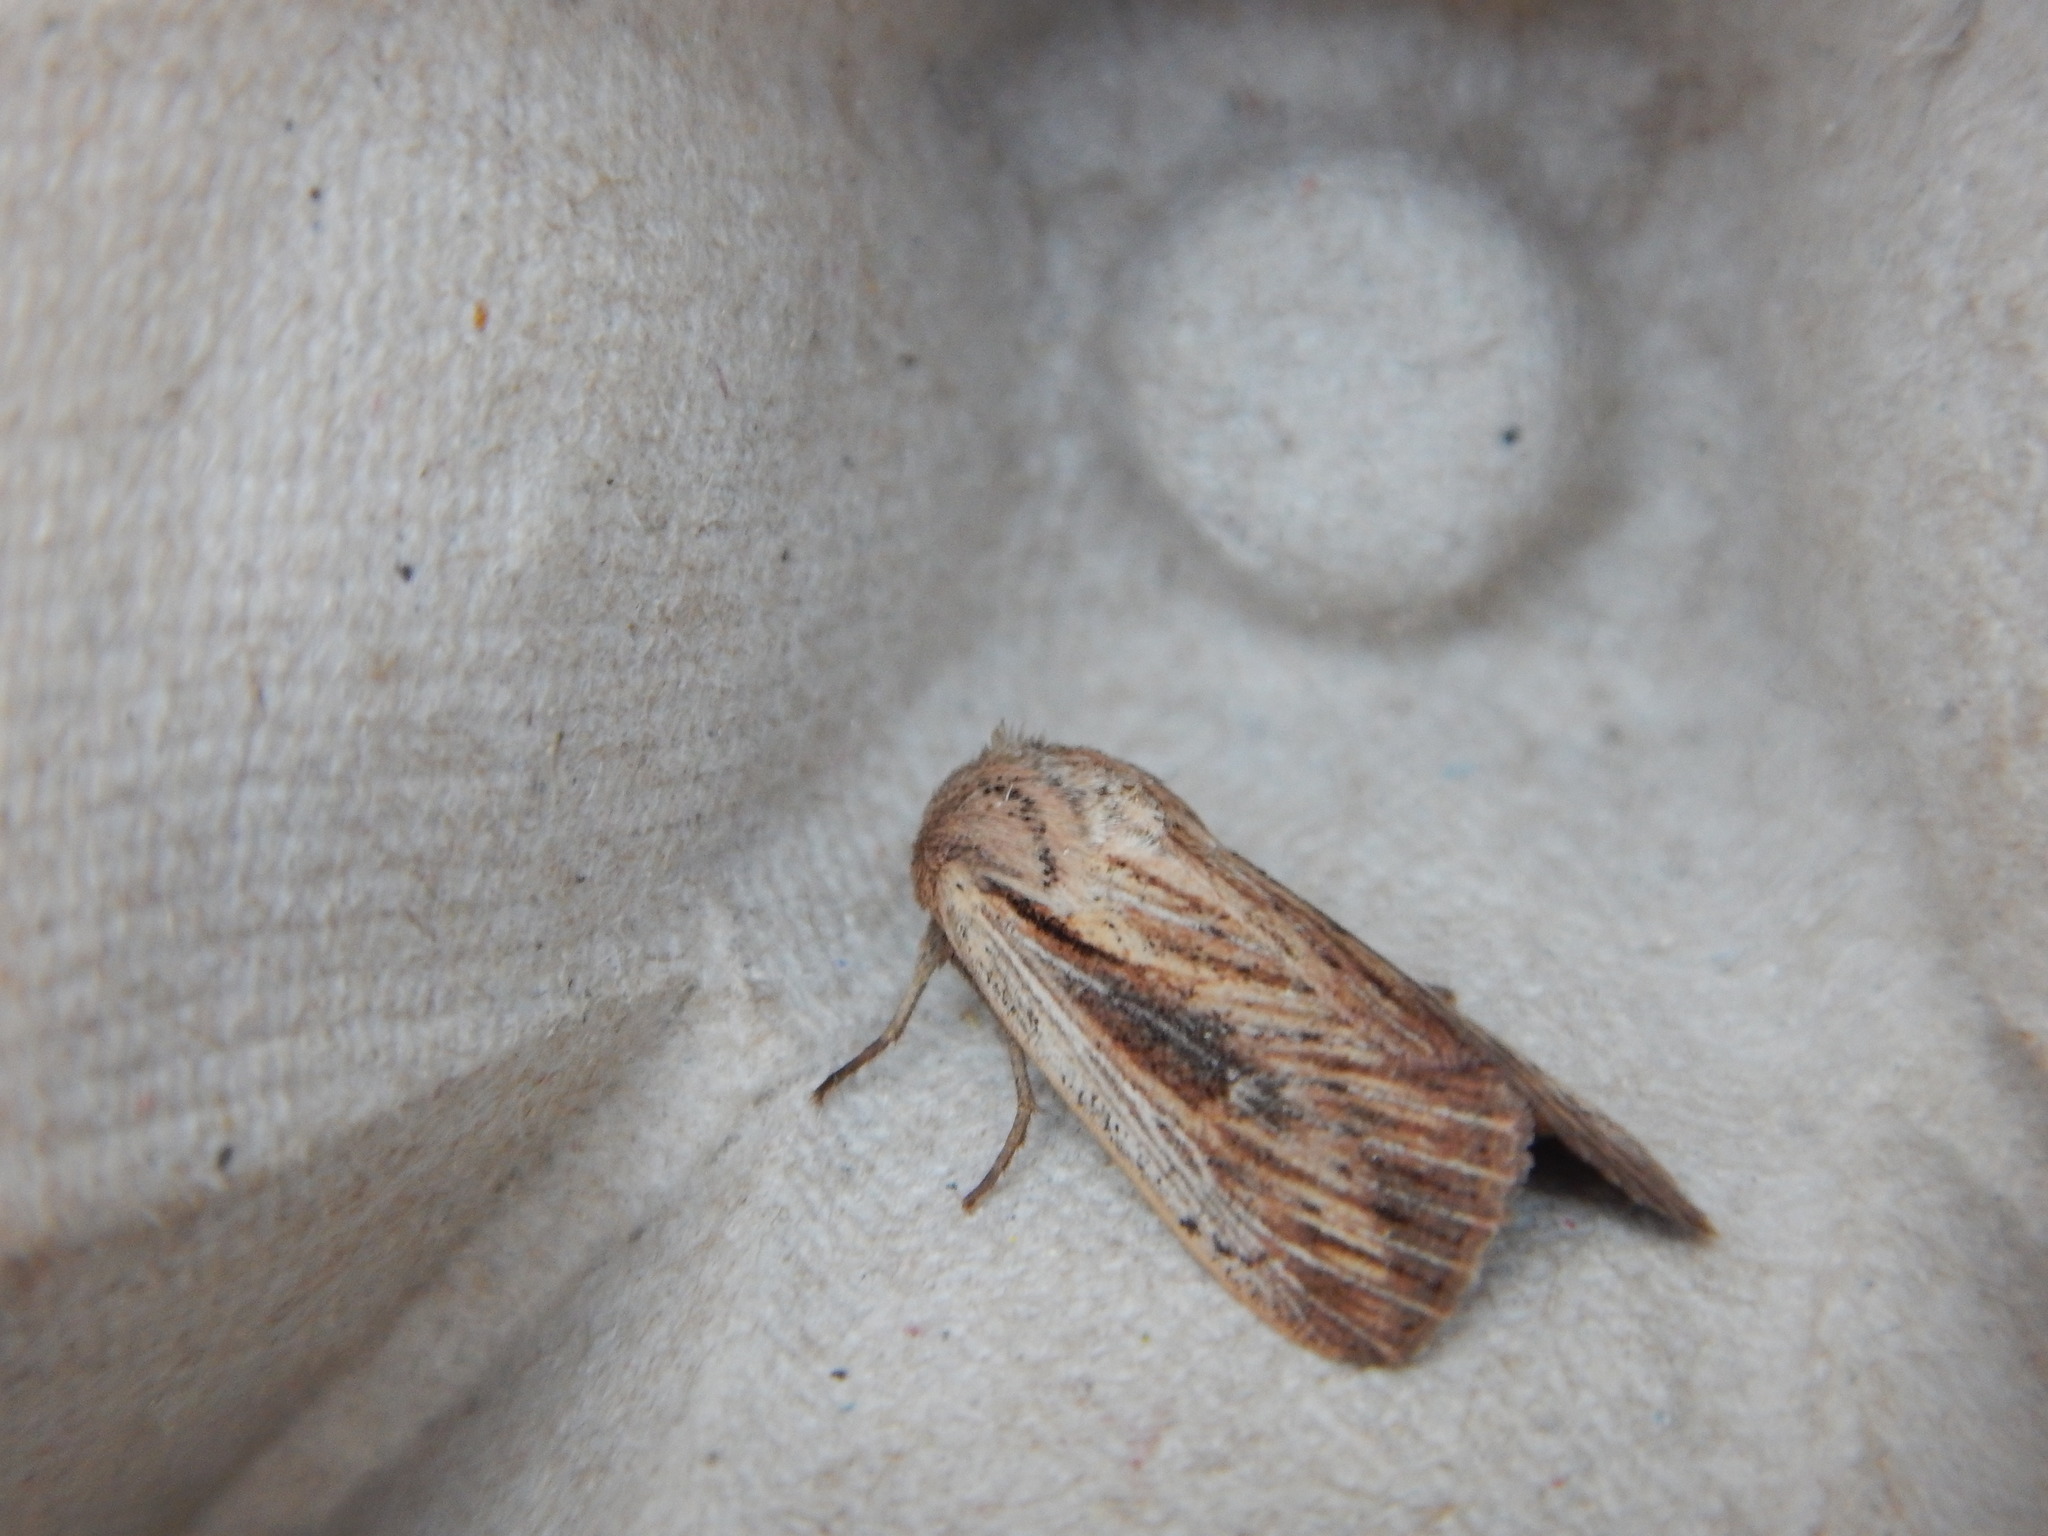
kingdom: Animalia
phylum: Arthropoda
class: Insecta
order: Lepidoptera
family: Noctuidae
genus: Leucania
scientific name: Leucania insueta
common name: Heterodox wainscot moth
